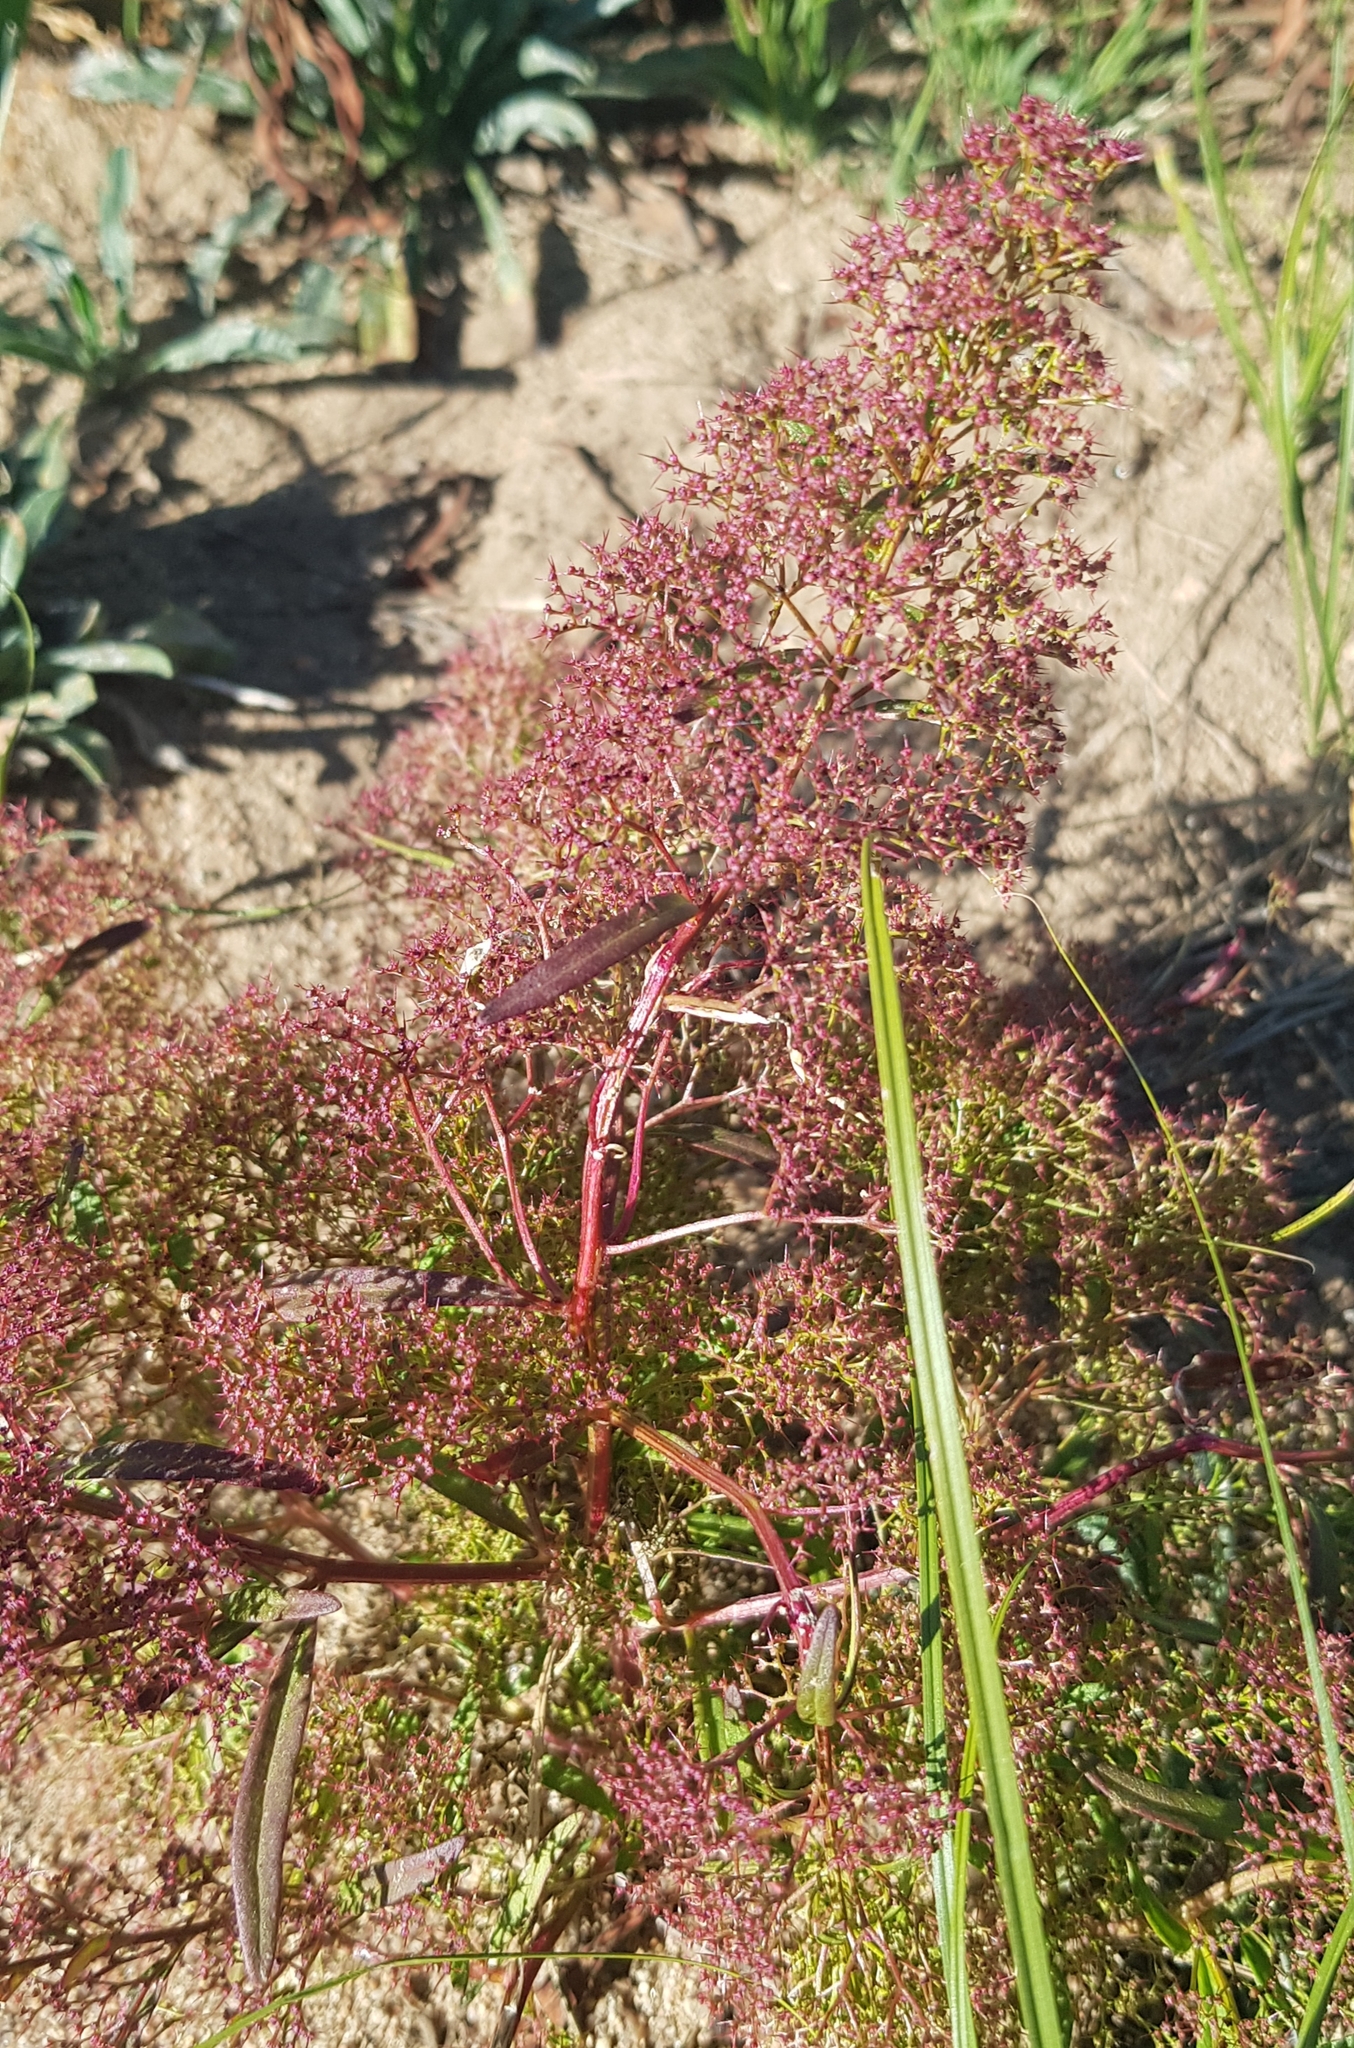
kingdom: Plantae
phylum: Tracheophyta
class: Magnoliopsida
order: Caryophyllales
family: Amaranthaceae
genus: Teloxys
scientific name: Teloxys aristata
